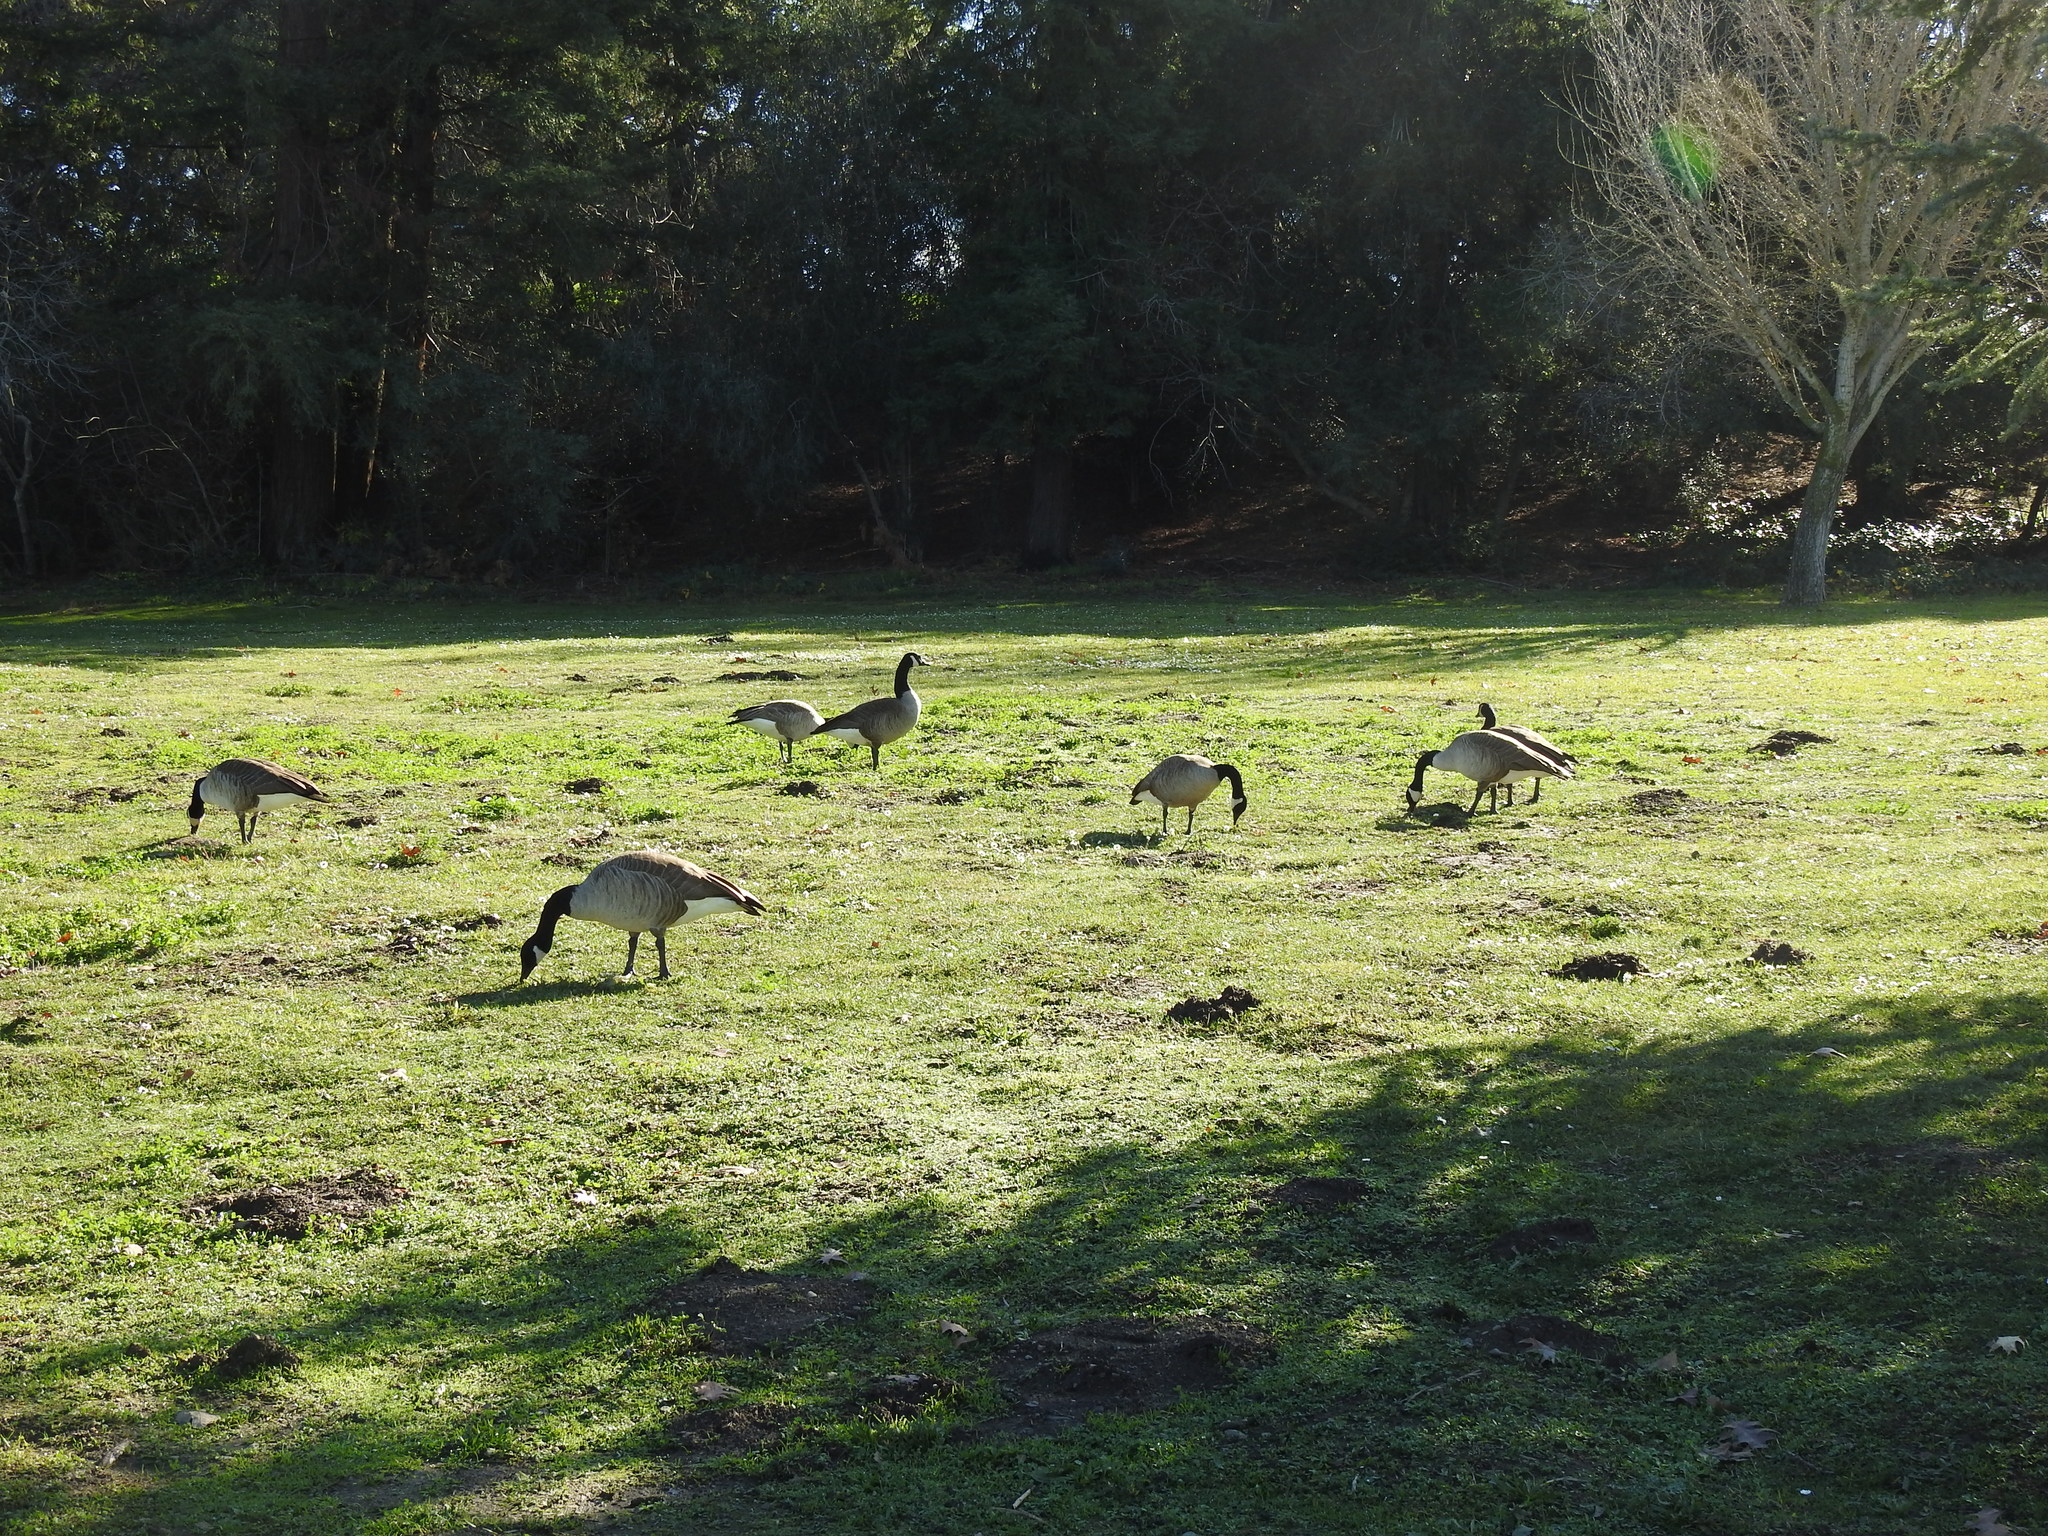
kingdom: Animalia
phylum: Chordata
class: Aves
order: Anseriformes
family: Anatidae
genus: Branta
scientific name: Branta canadensis
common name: Canada goose
